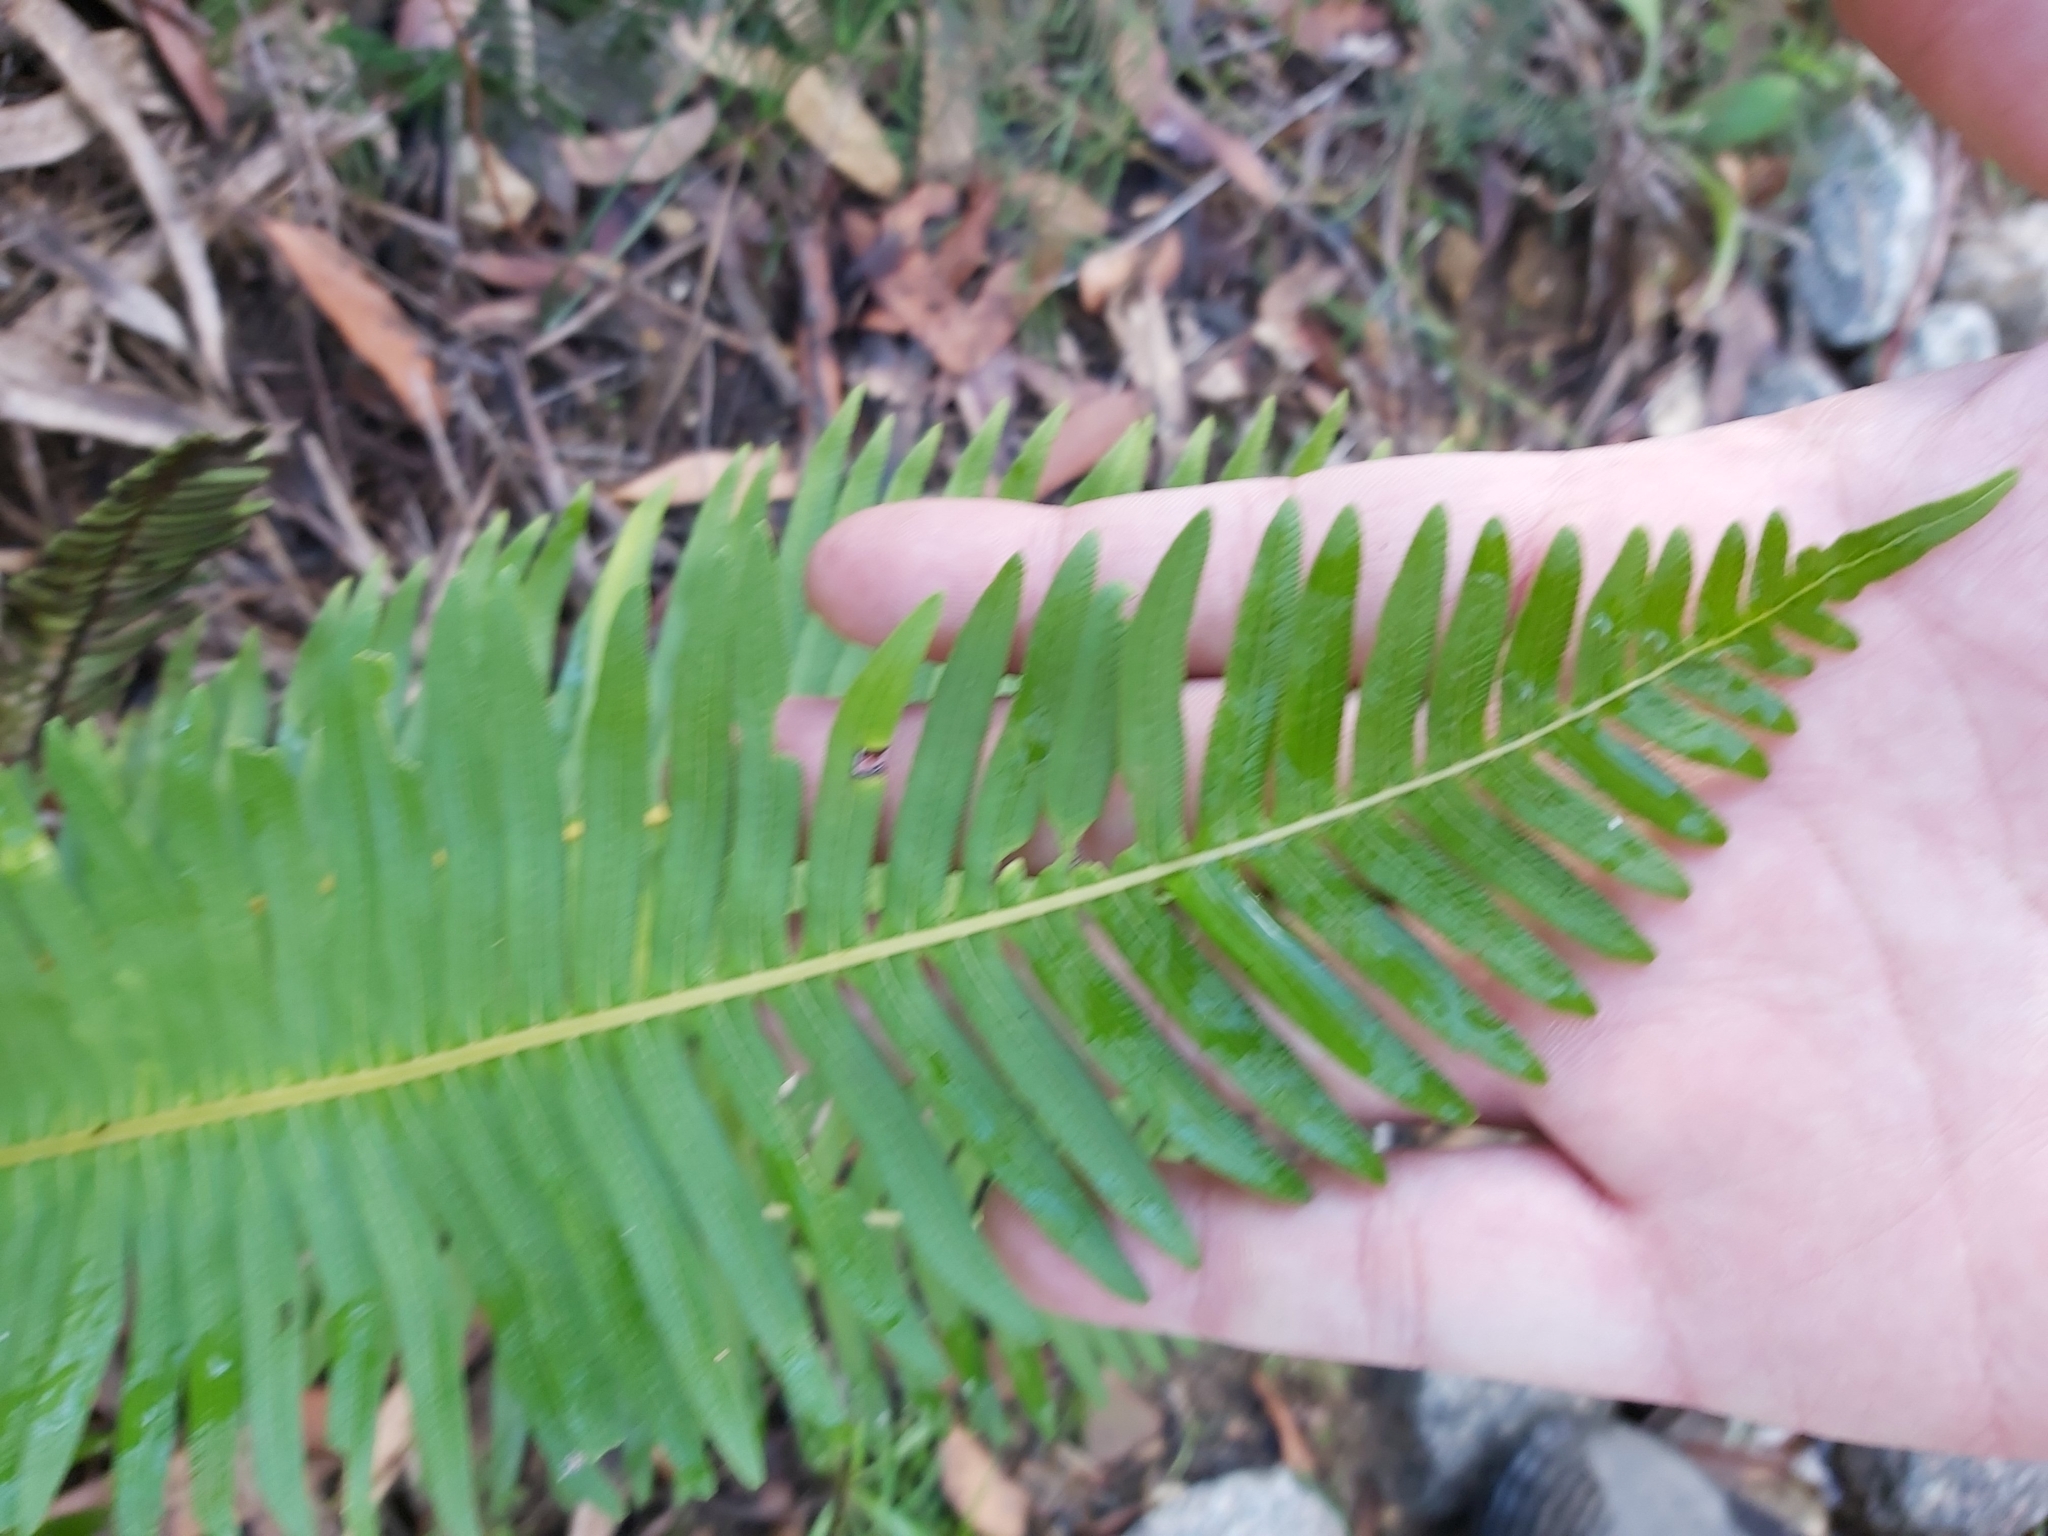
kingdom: Plantae
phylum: Tracheophyta
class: Polypodiopsida
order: Polypodiales
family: Blechnaceae
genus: Lomaria
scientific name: Lomaria nuda
